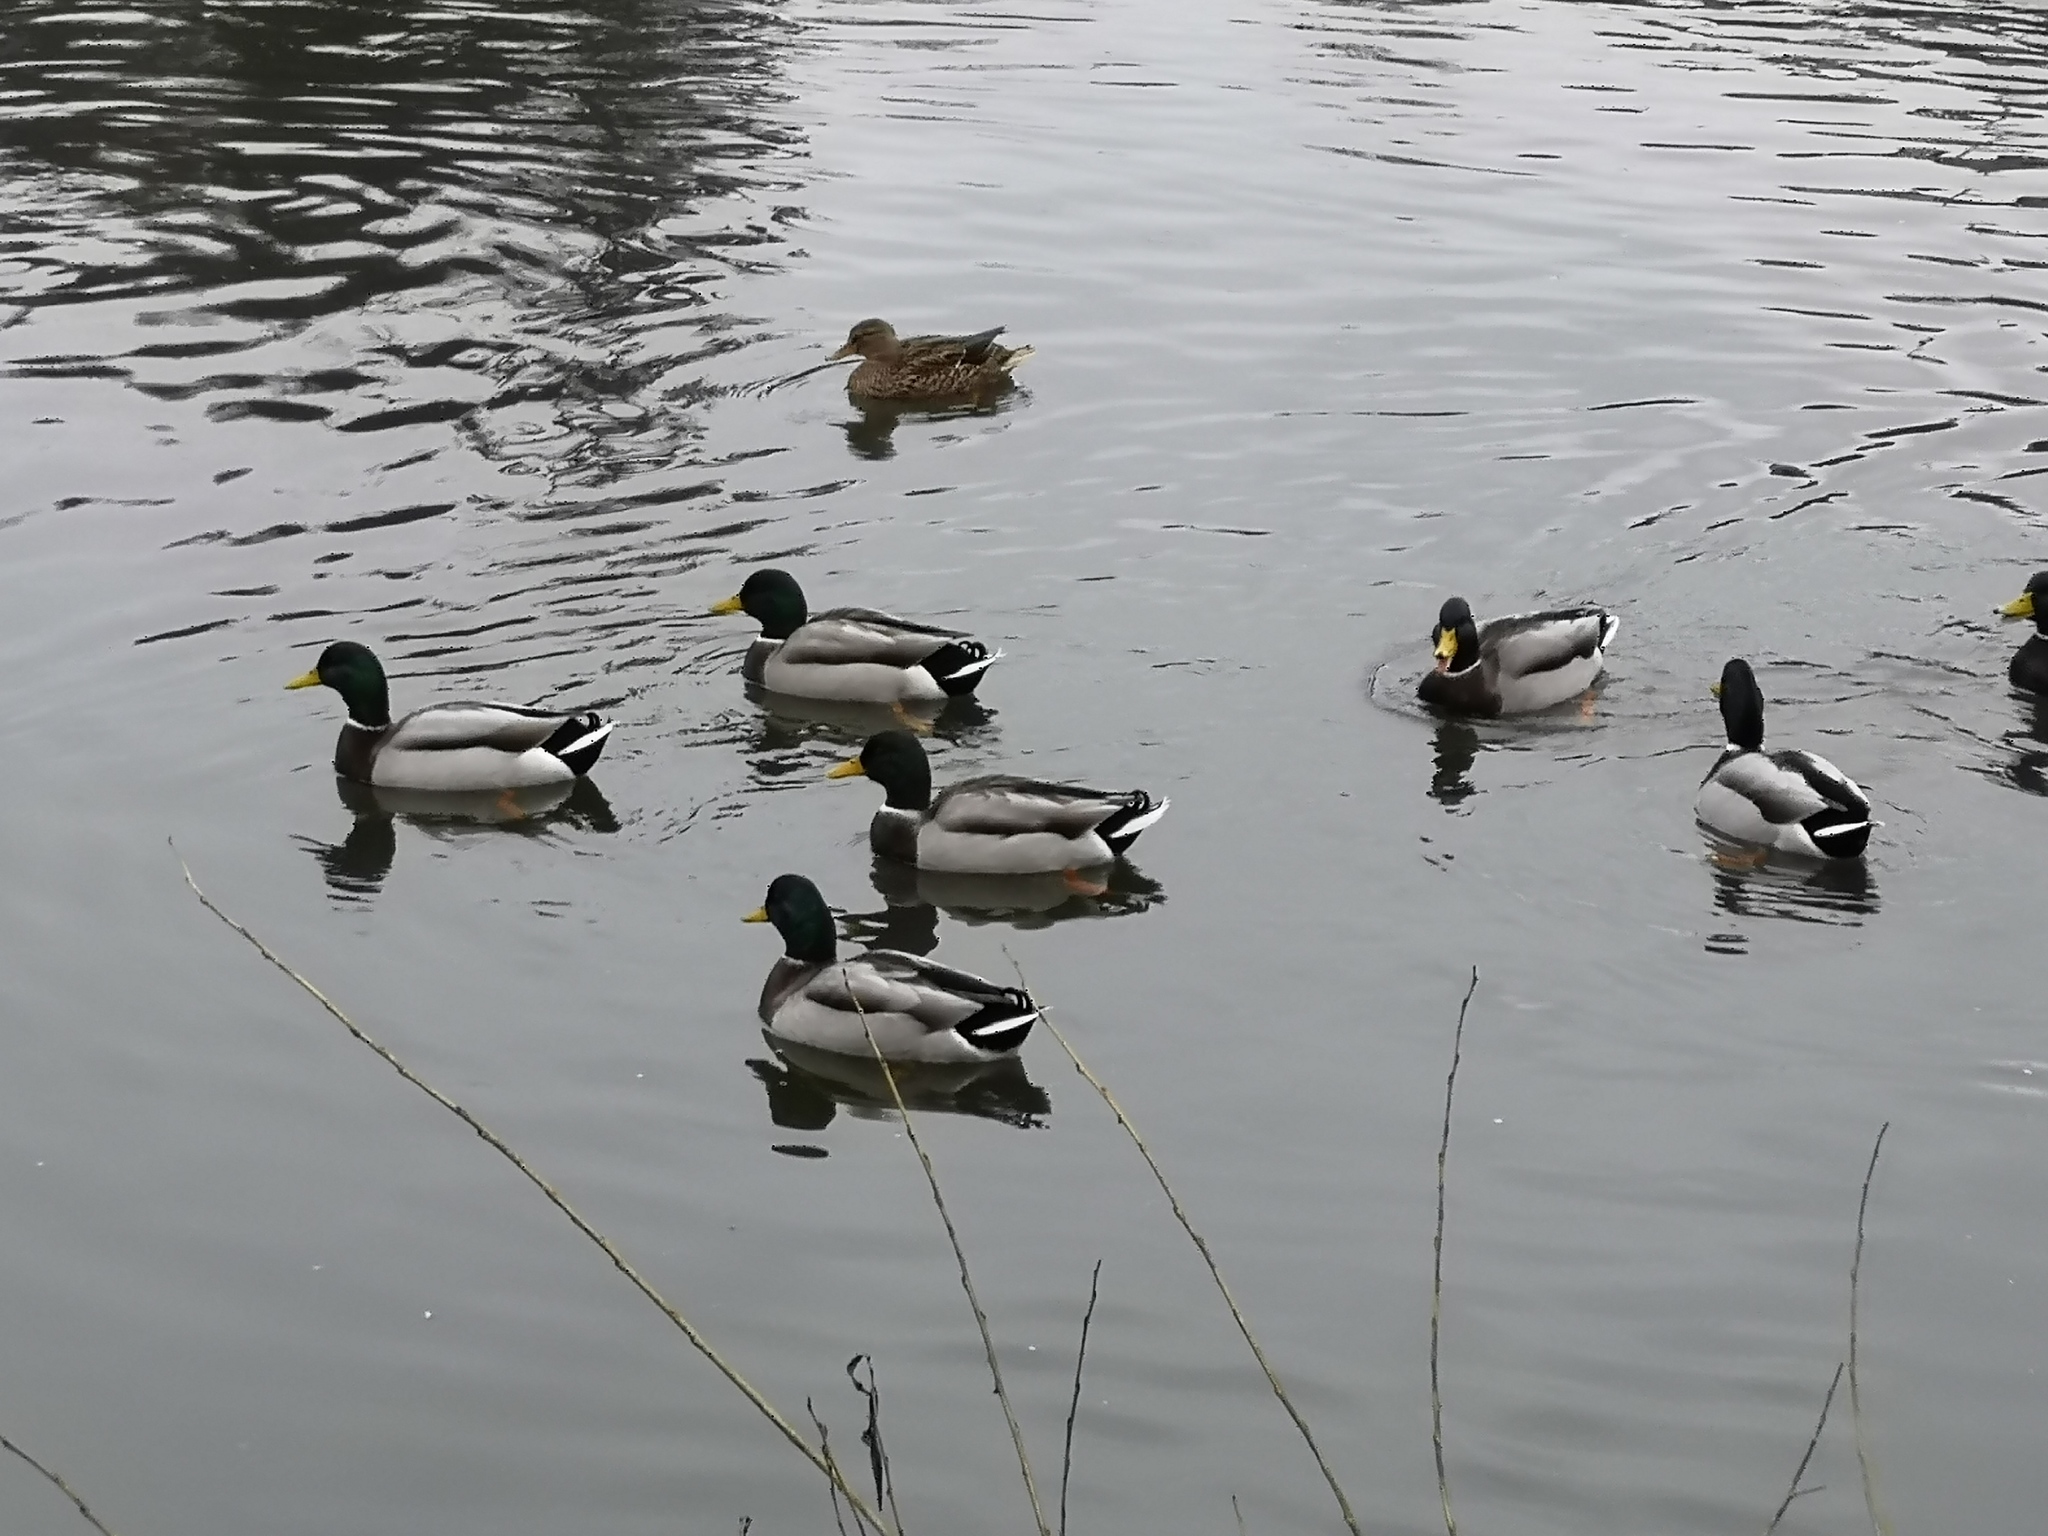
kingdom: Animalia
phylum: Chordata
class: Aves
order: Anseriformes
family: Anatidae
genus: Anas
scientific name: Anas platyrhynchos
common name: Mallard
